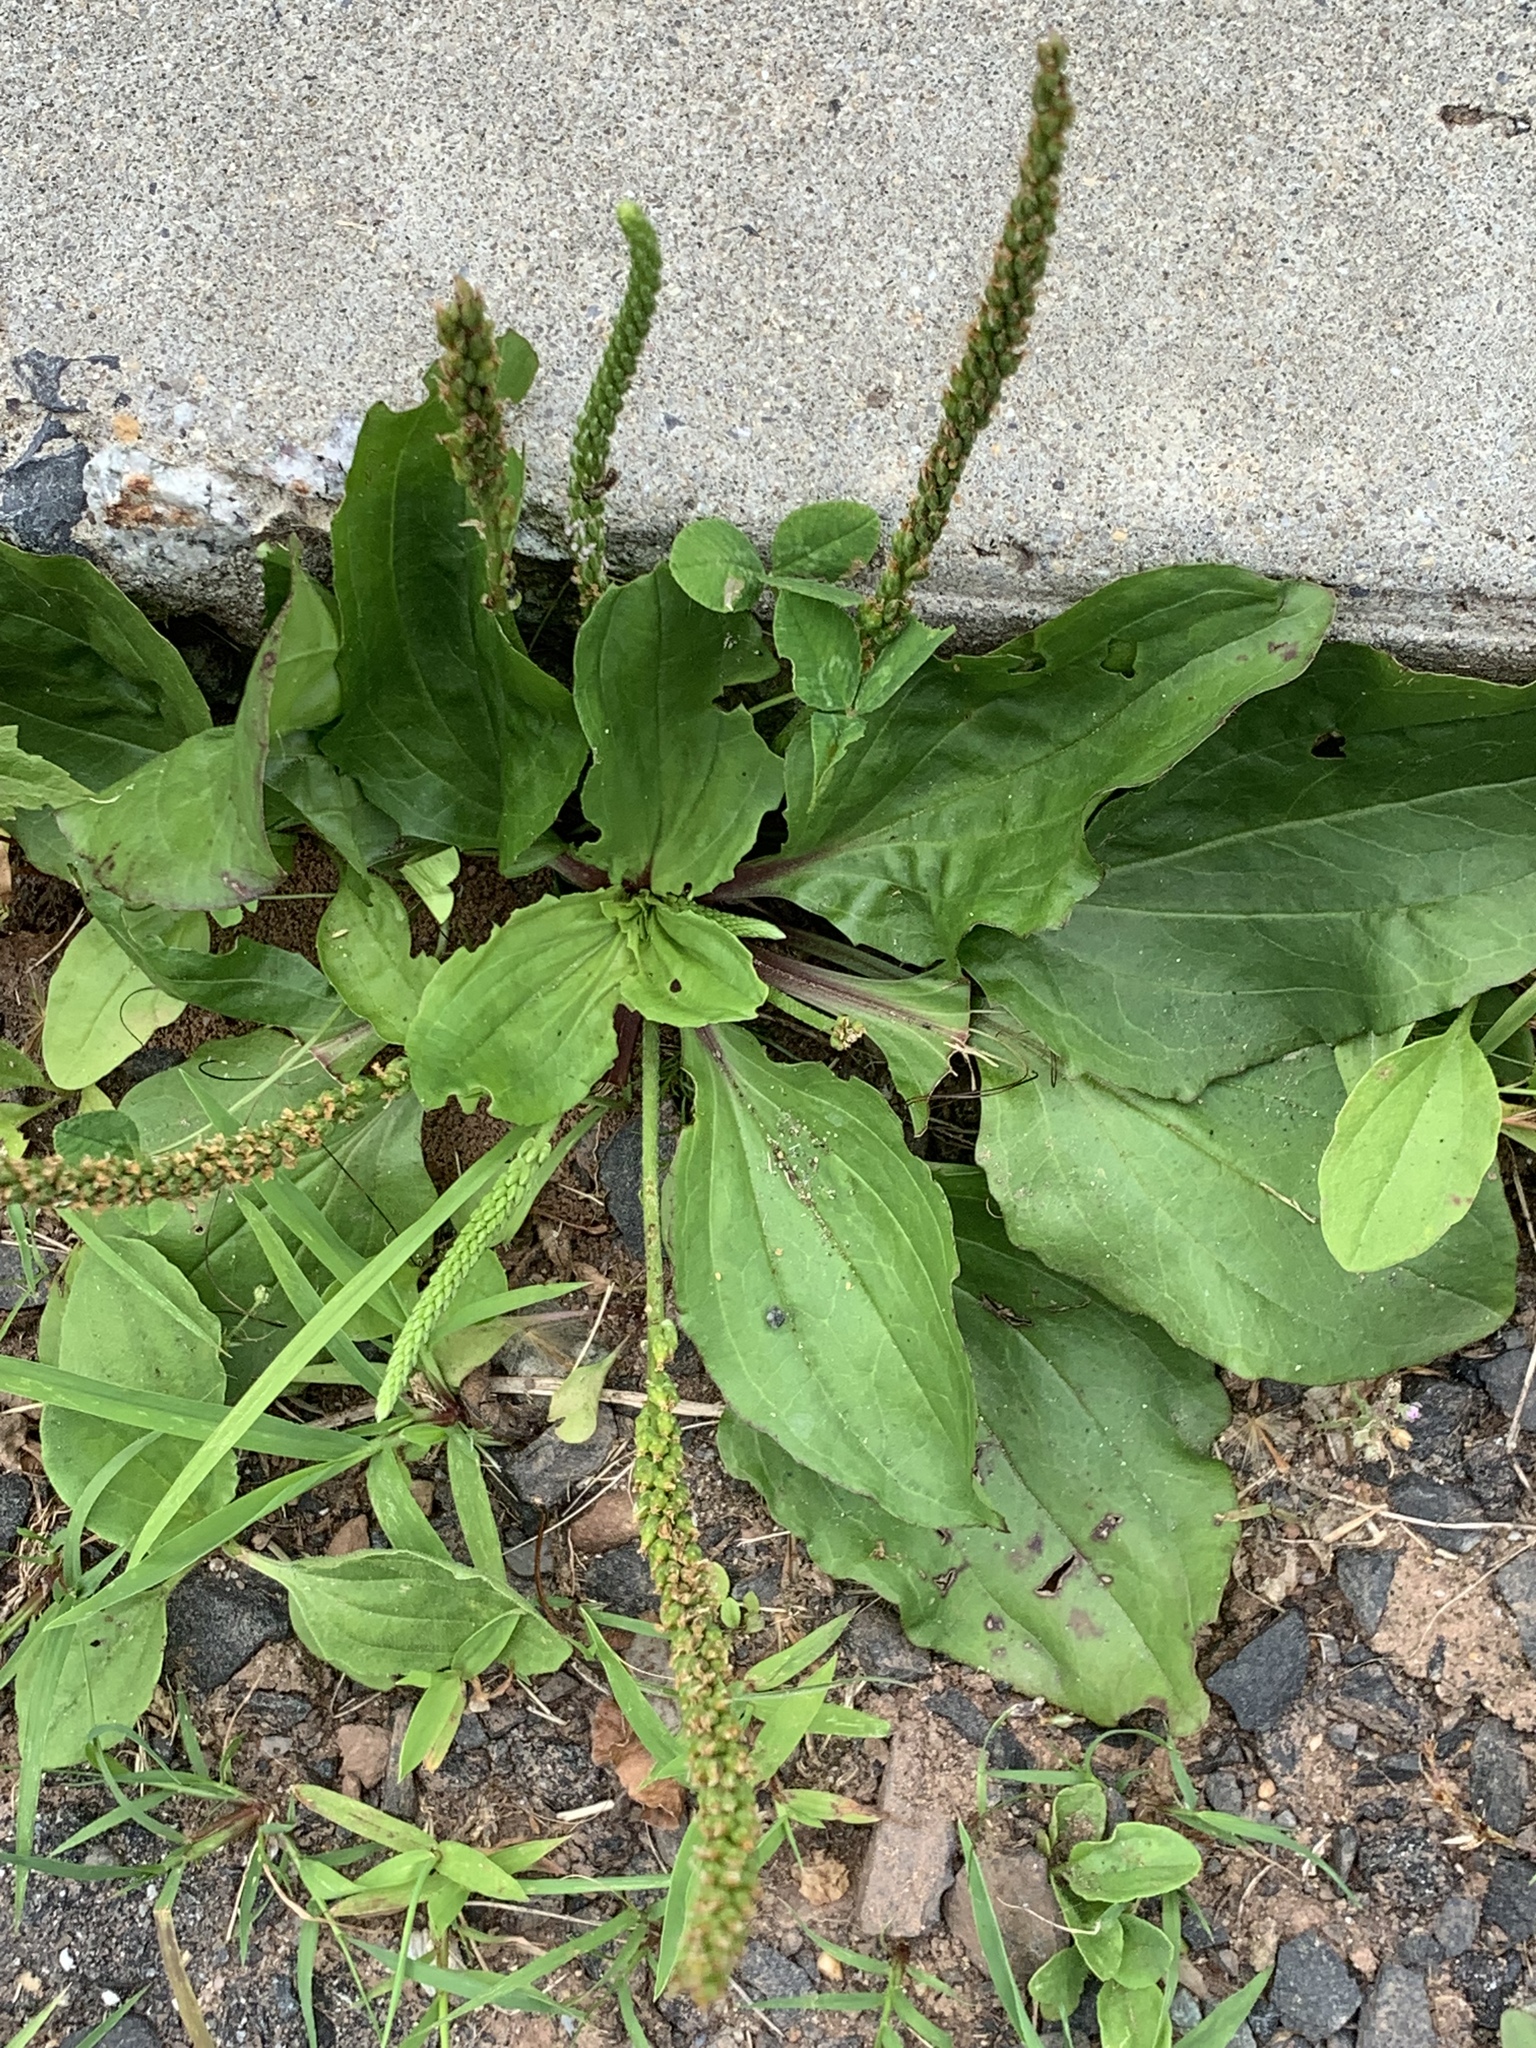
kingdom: Plantae
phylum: Tracheophyta
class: Magnoliopsida
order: Lamiales
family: Plantaginaceae
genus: Plantago
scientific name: Plantago rugelii
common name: American plantain
